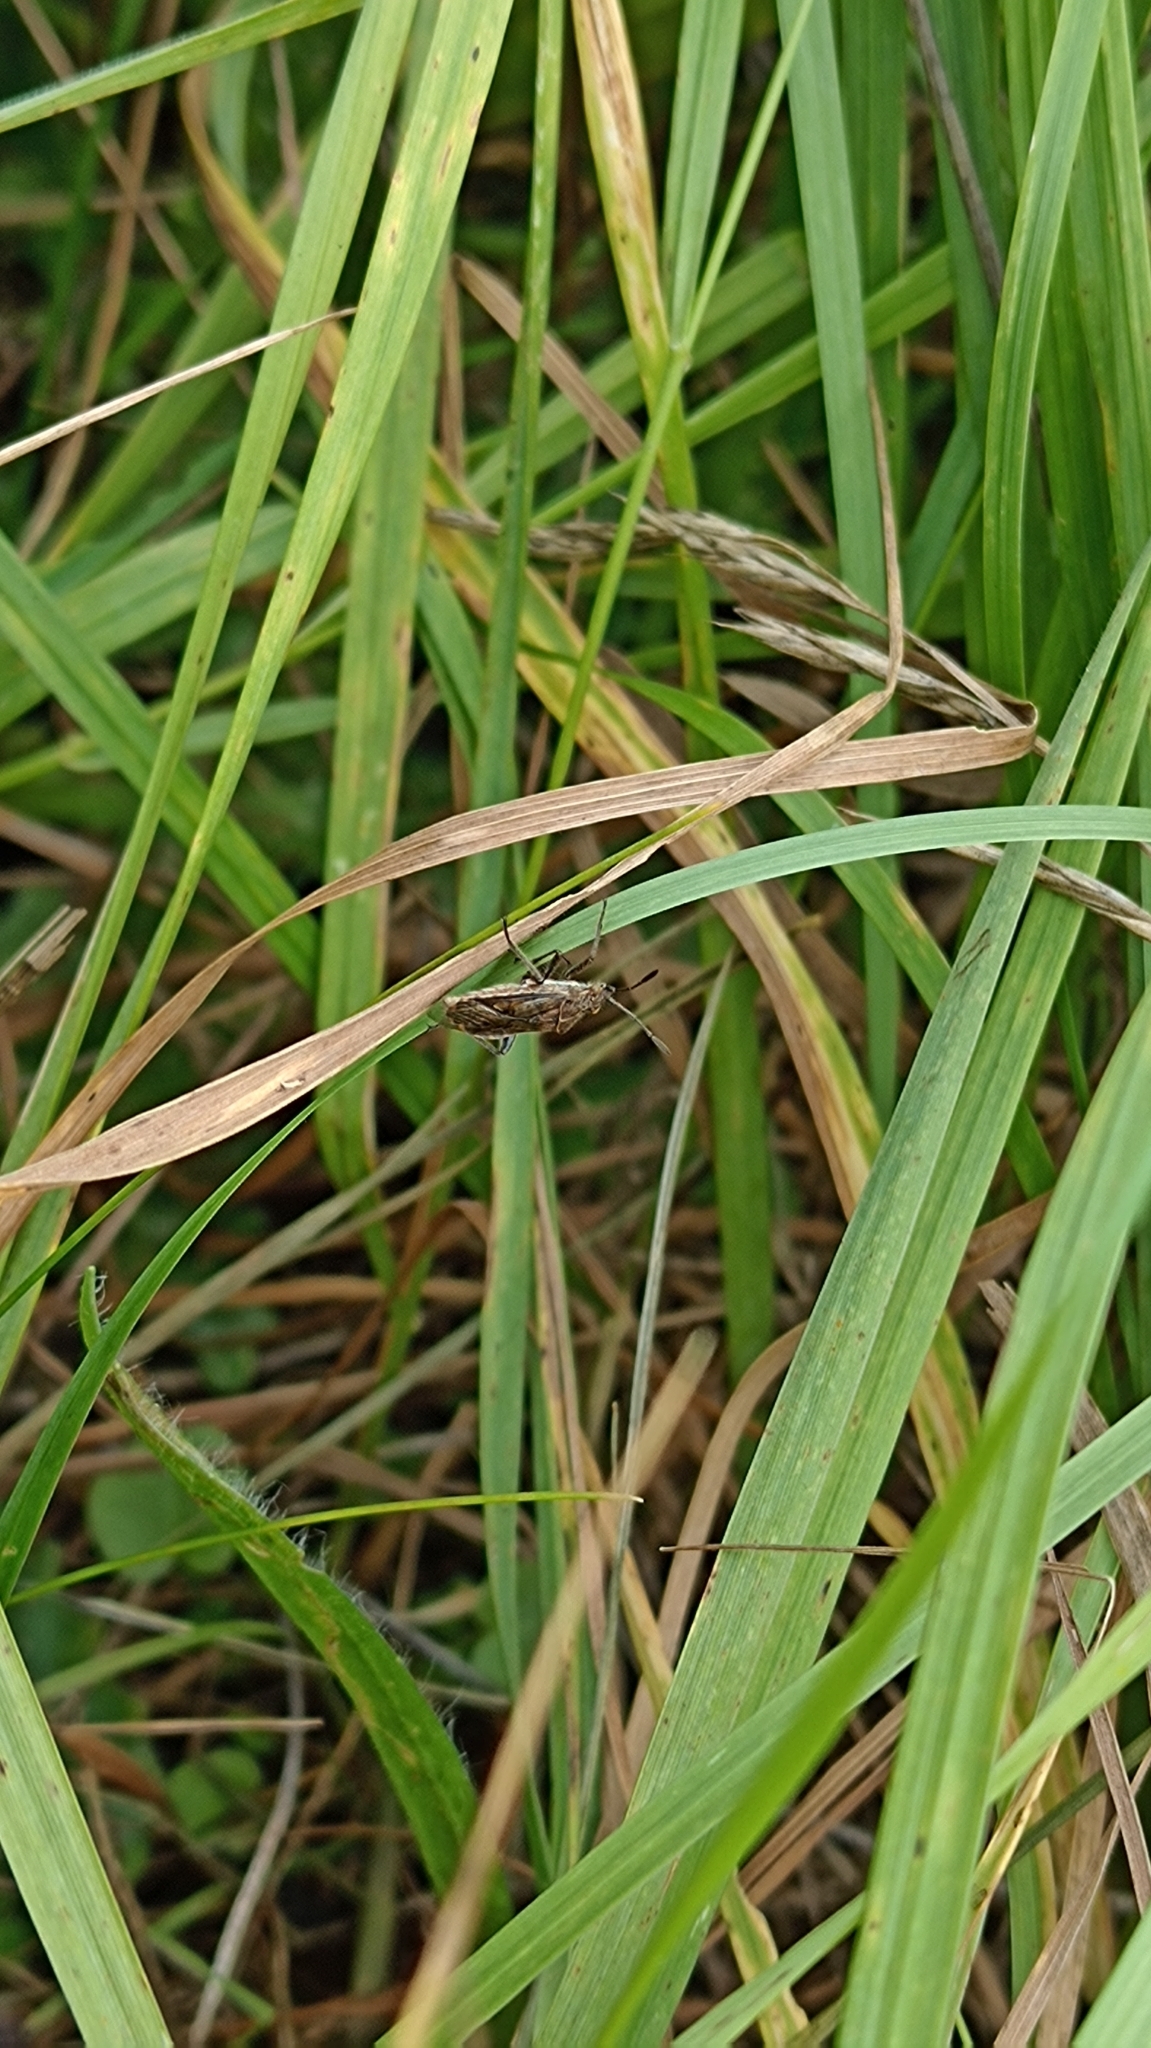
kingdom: Animalia
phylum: Arthropoda
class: Insecta
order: Hemiptera
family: Rhopalidae
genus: Stictopleurus
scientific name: Stictopleurus punctatonervosus
